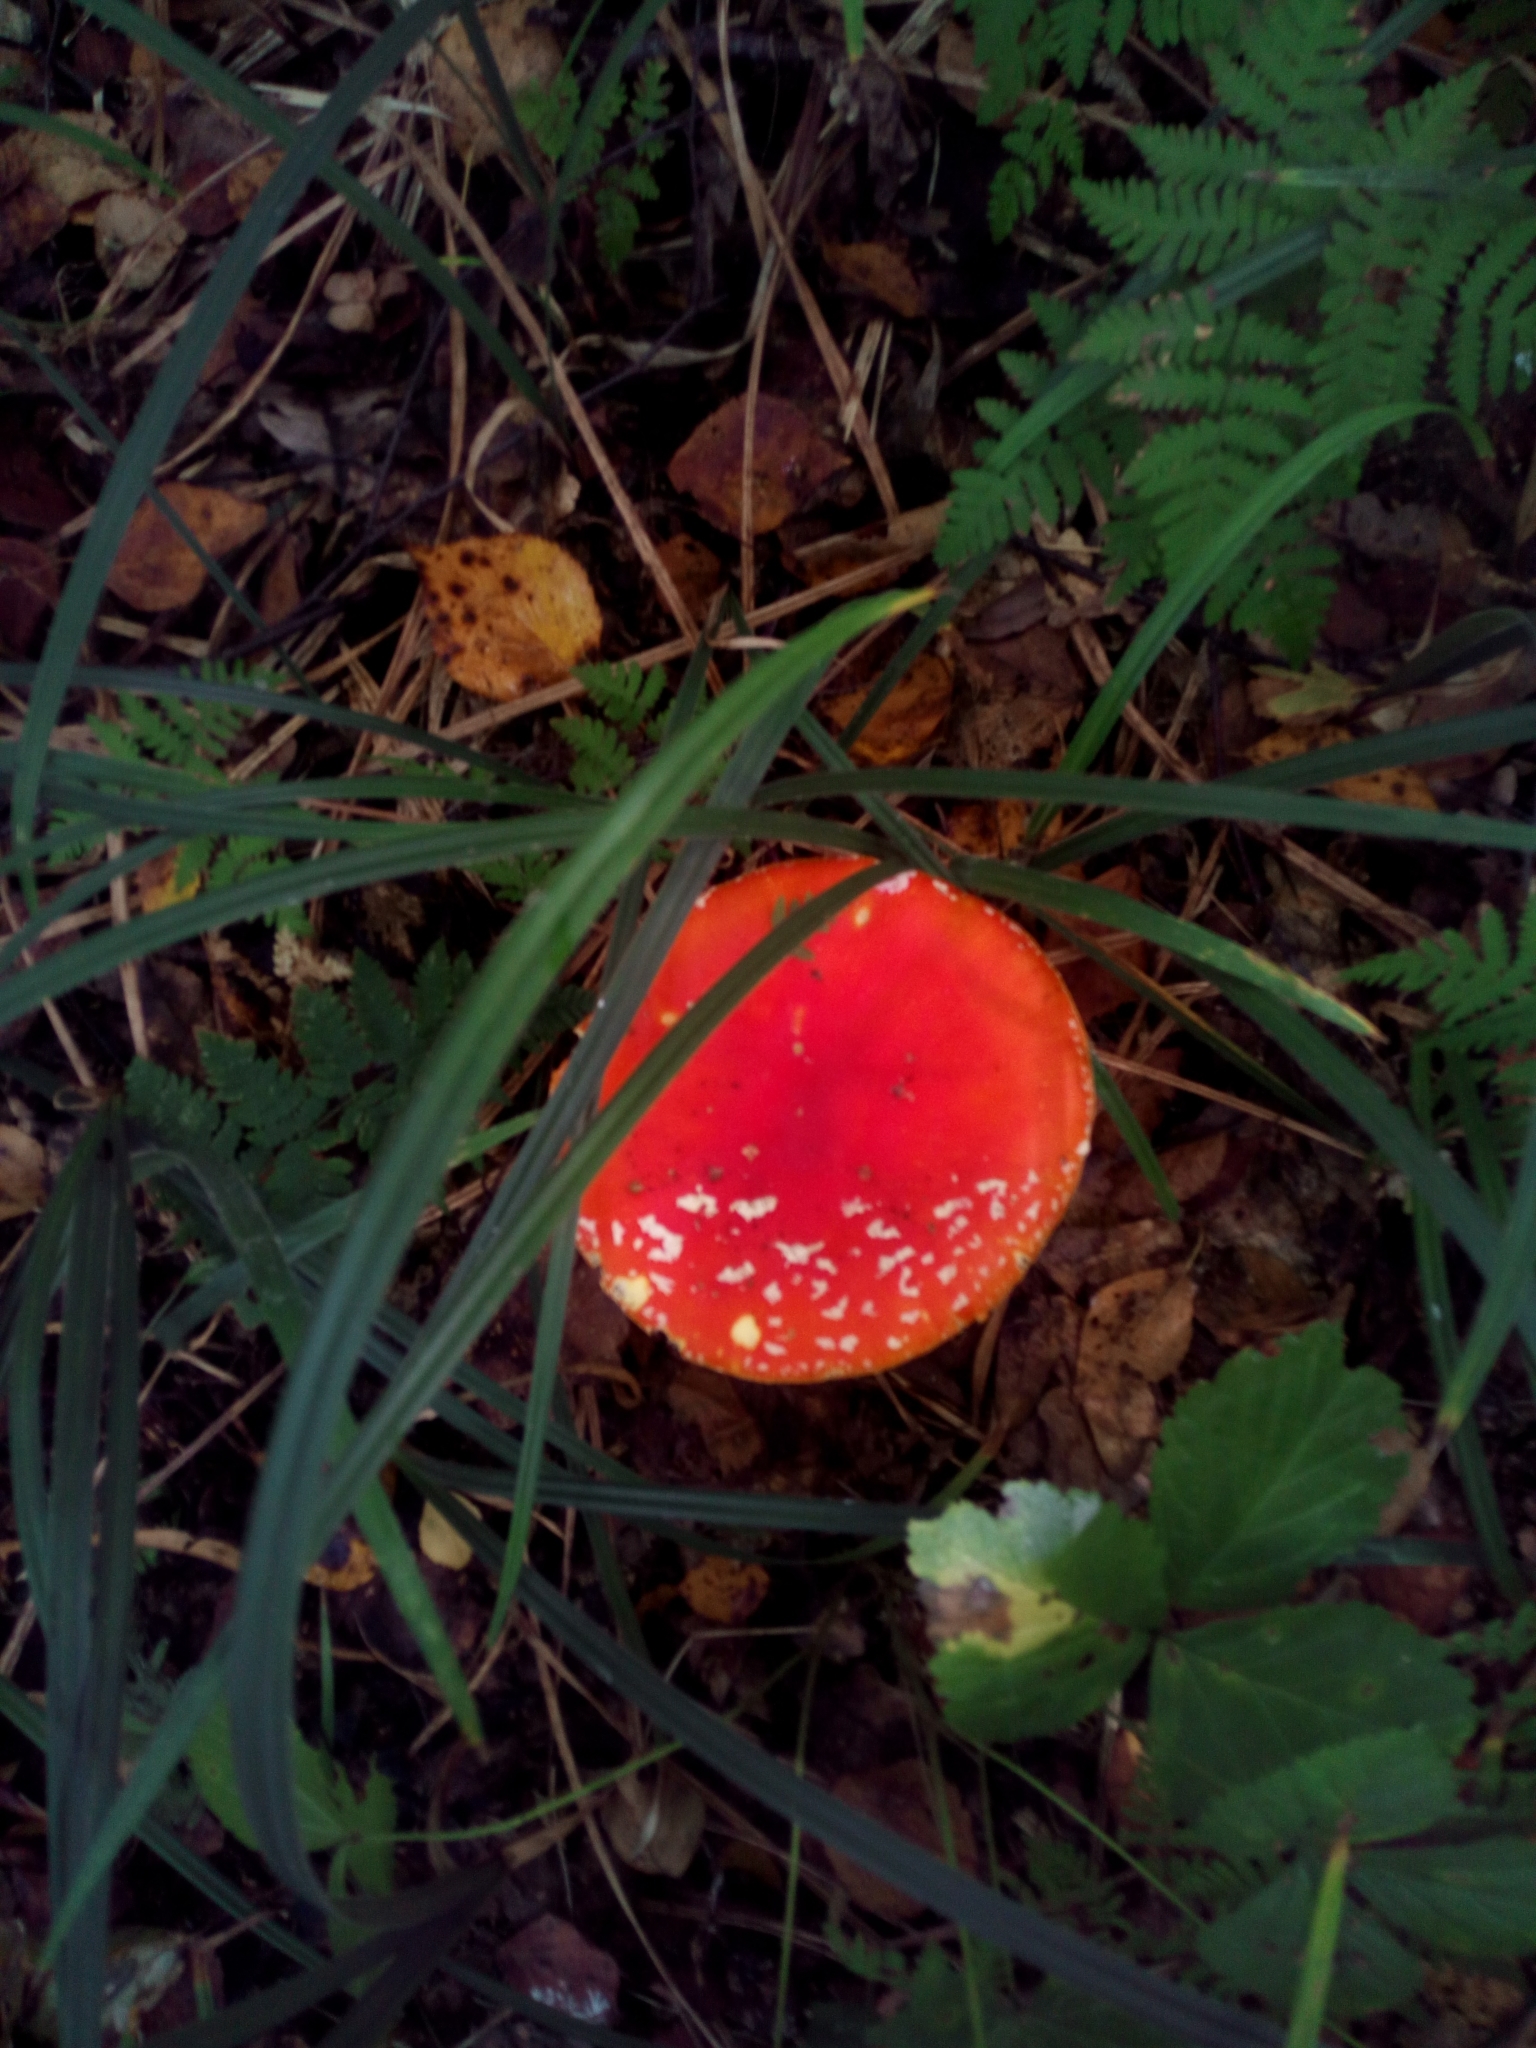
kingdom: Fungi
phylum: Basidiomycota
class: Agaricomycetes
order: Agaricales
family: Amanitaceae
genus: Amanita
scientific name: Amanita muscaria
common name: Fly agaric
